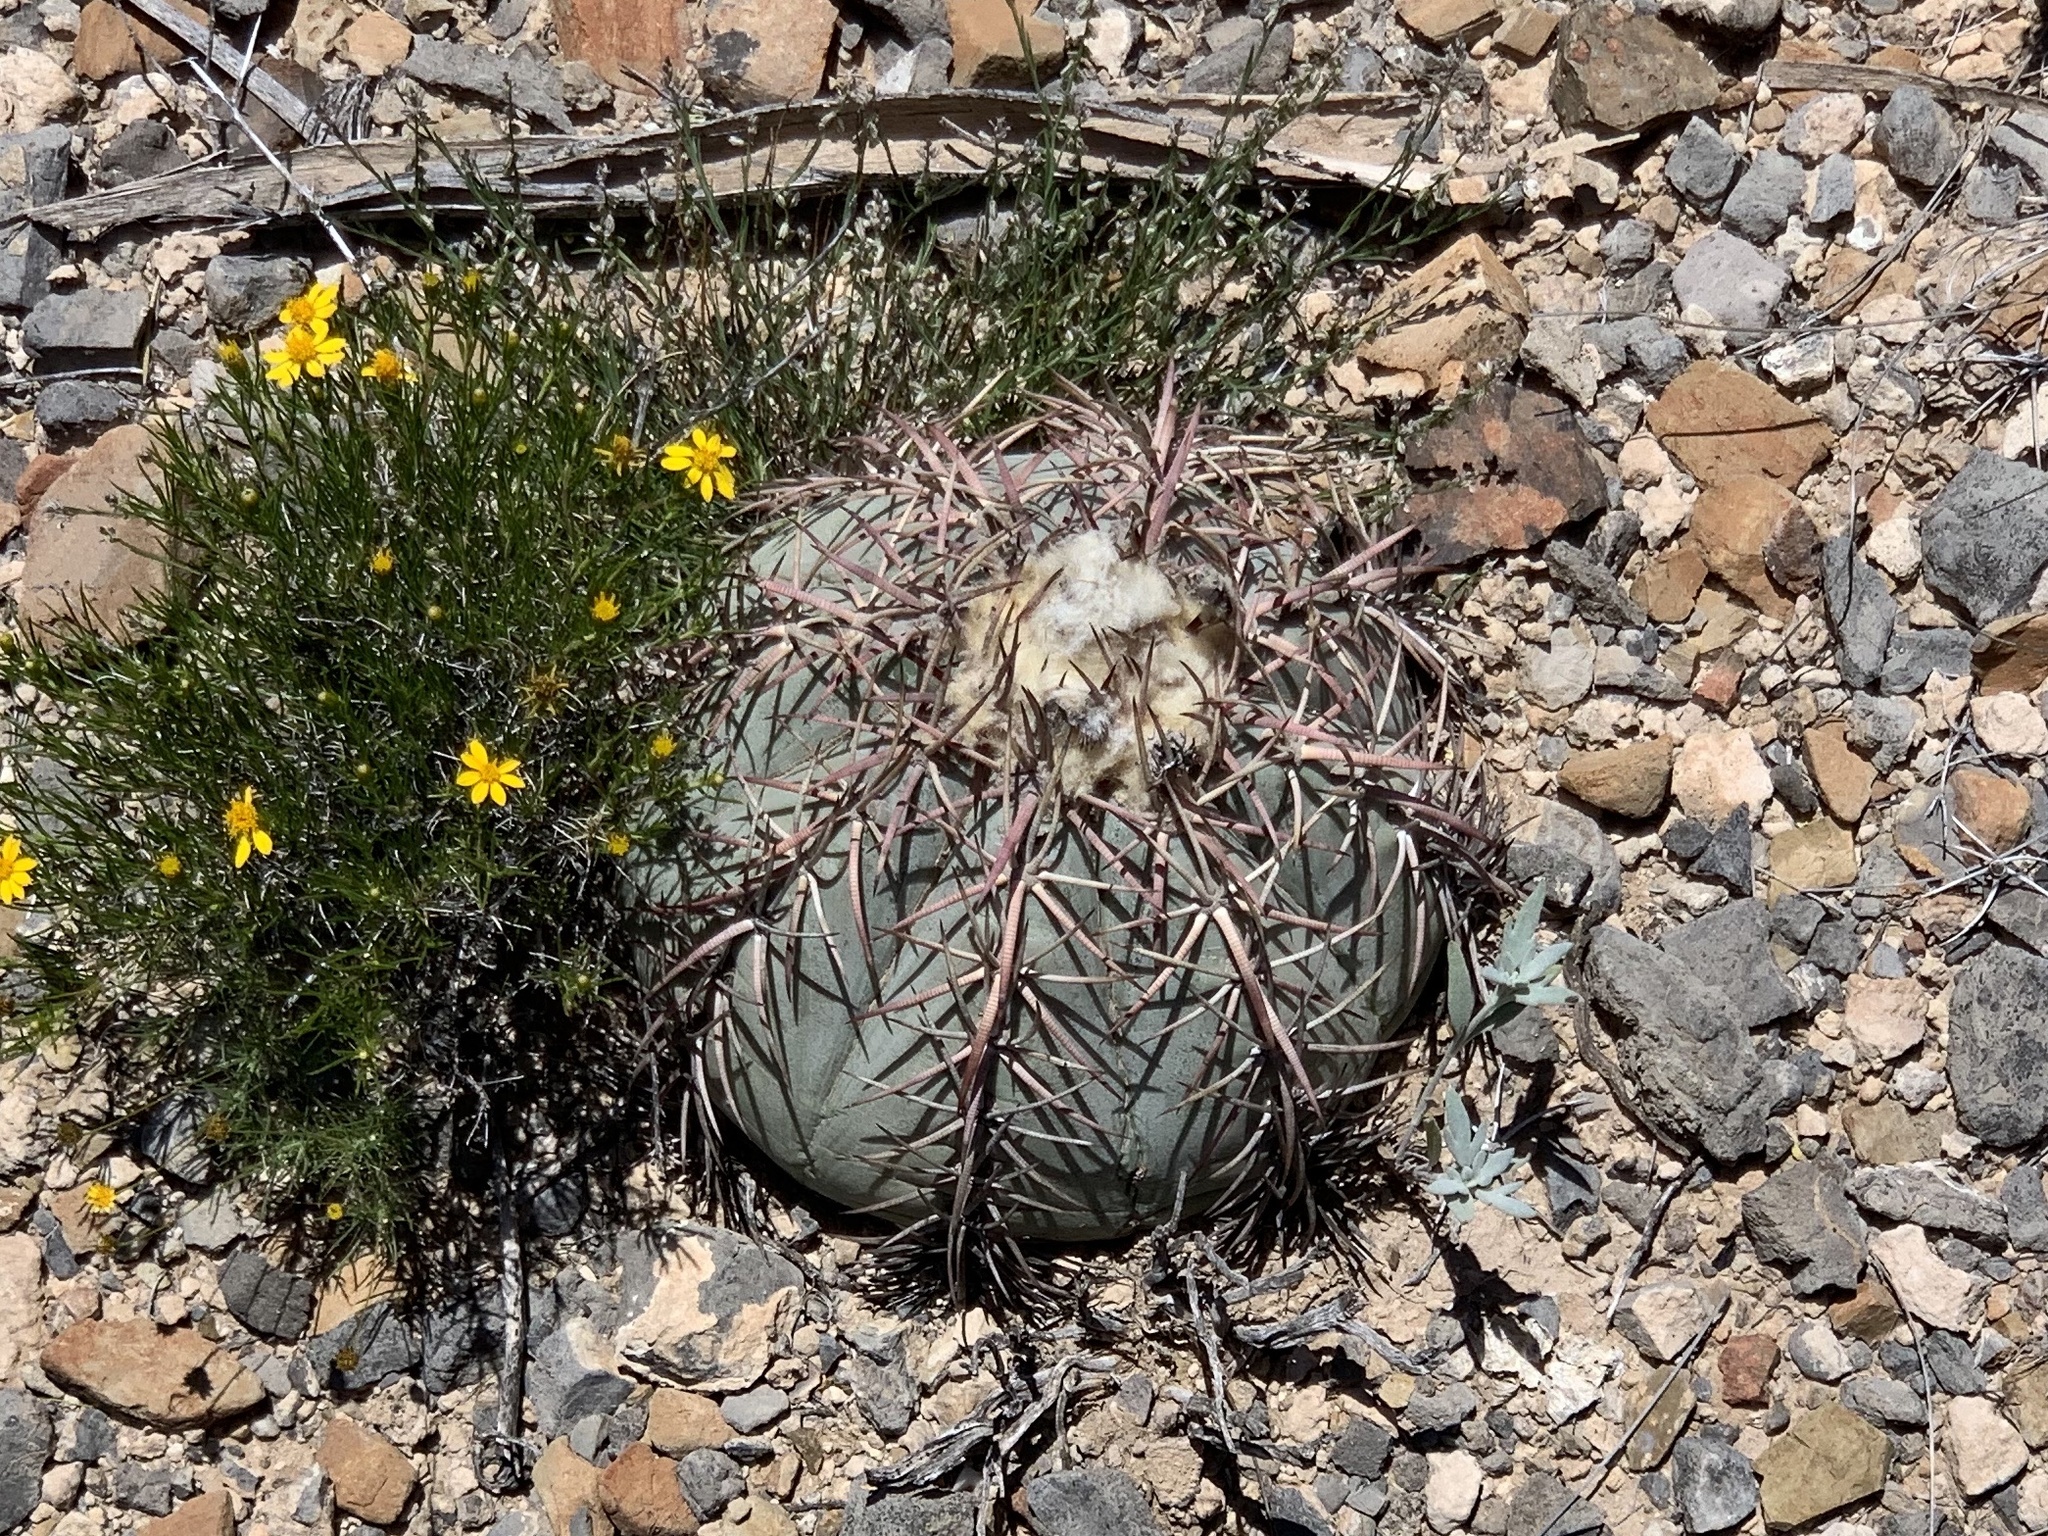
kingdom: Plantae
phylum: Tracheophyta
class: Magnoliopsida
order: Caryophyllales
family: Cactaceae
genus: Echinocactus
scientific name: Echinocactus horizonthalonius
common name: Devilshead
